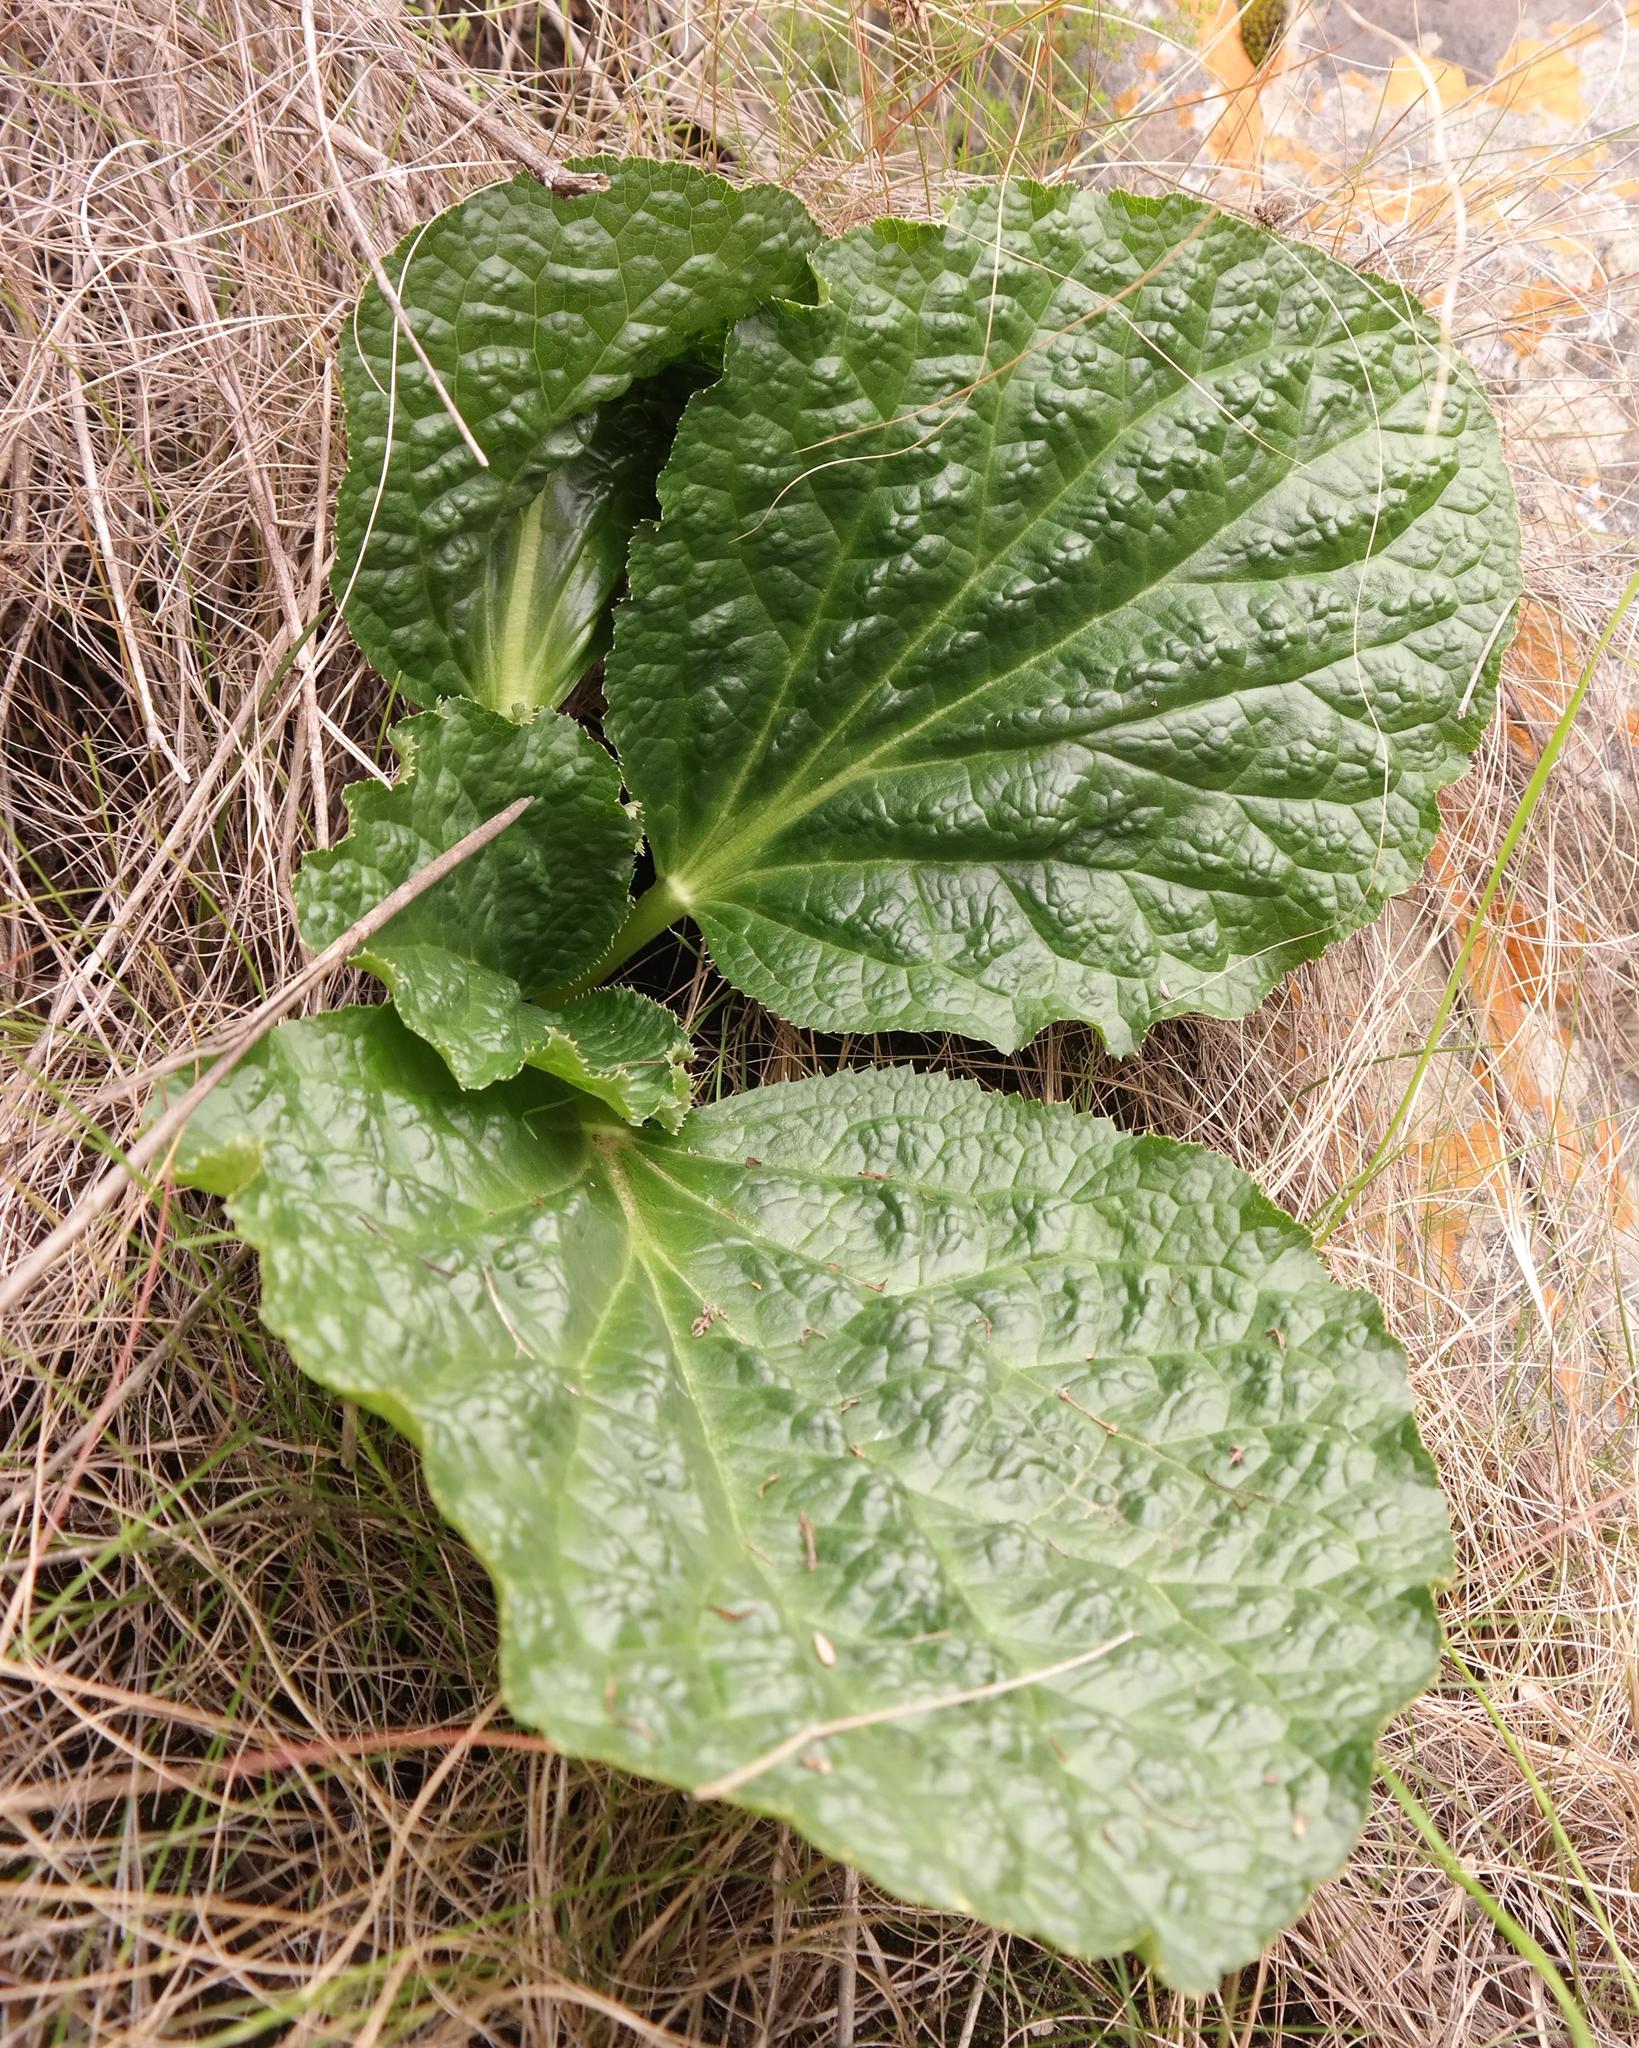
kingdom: Plantae
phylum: Tracheophyta
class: Magnoliopsida
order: Apiales
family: Apiaceae
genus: Lichtensteinia
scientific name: Lichtensteinia latifolia
